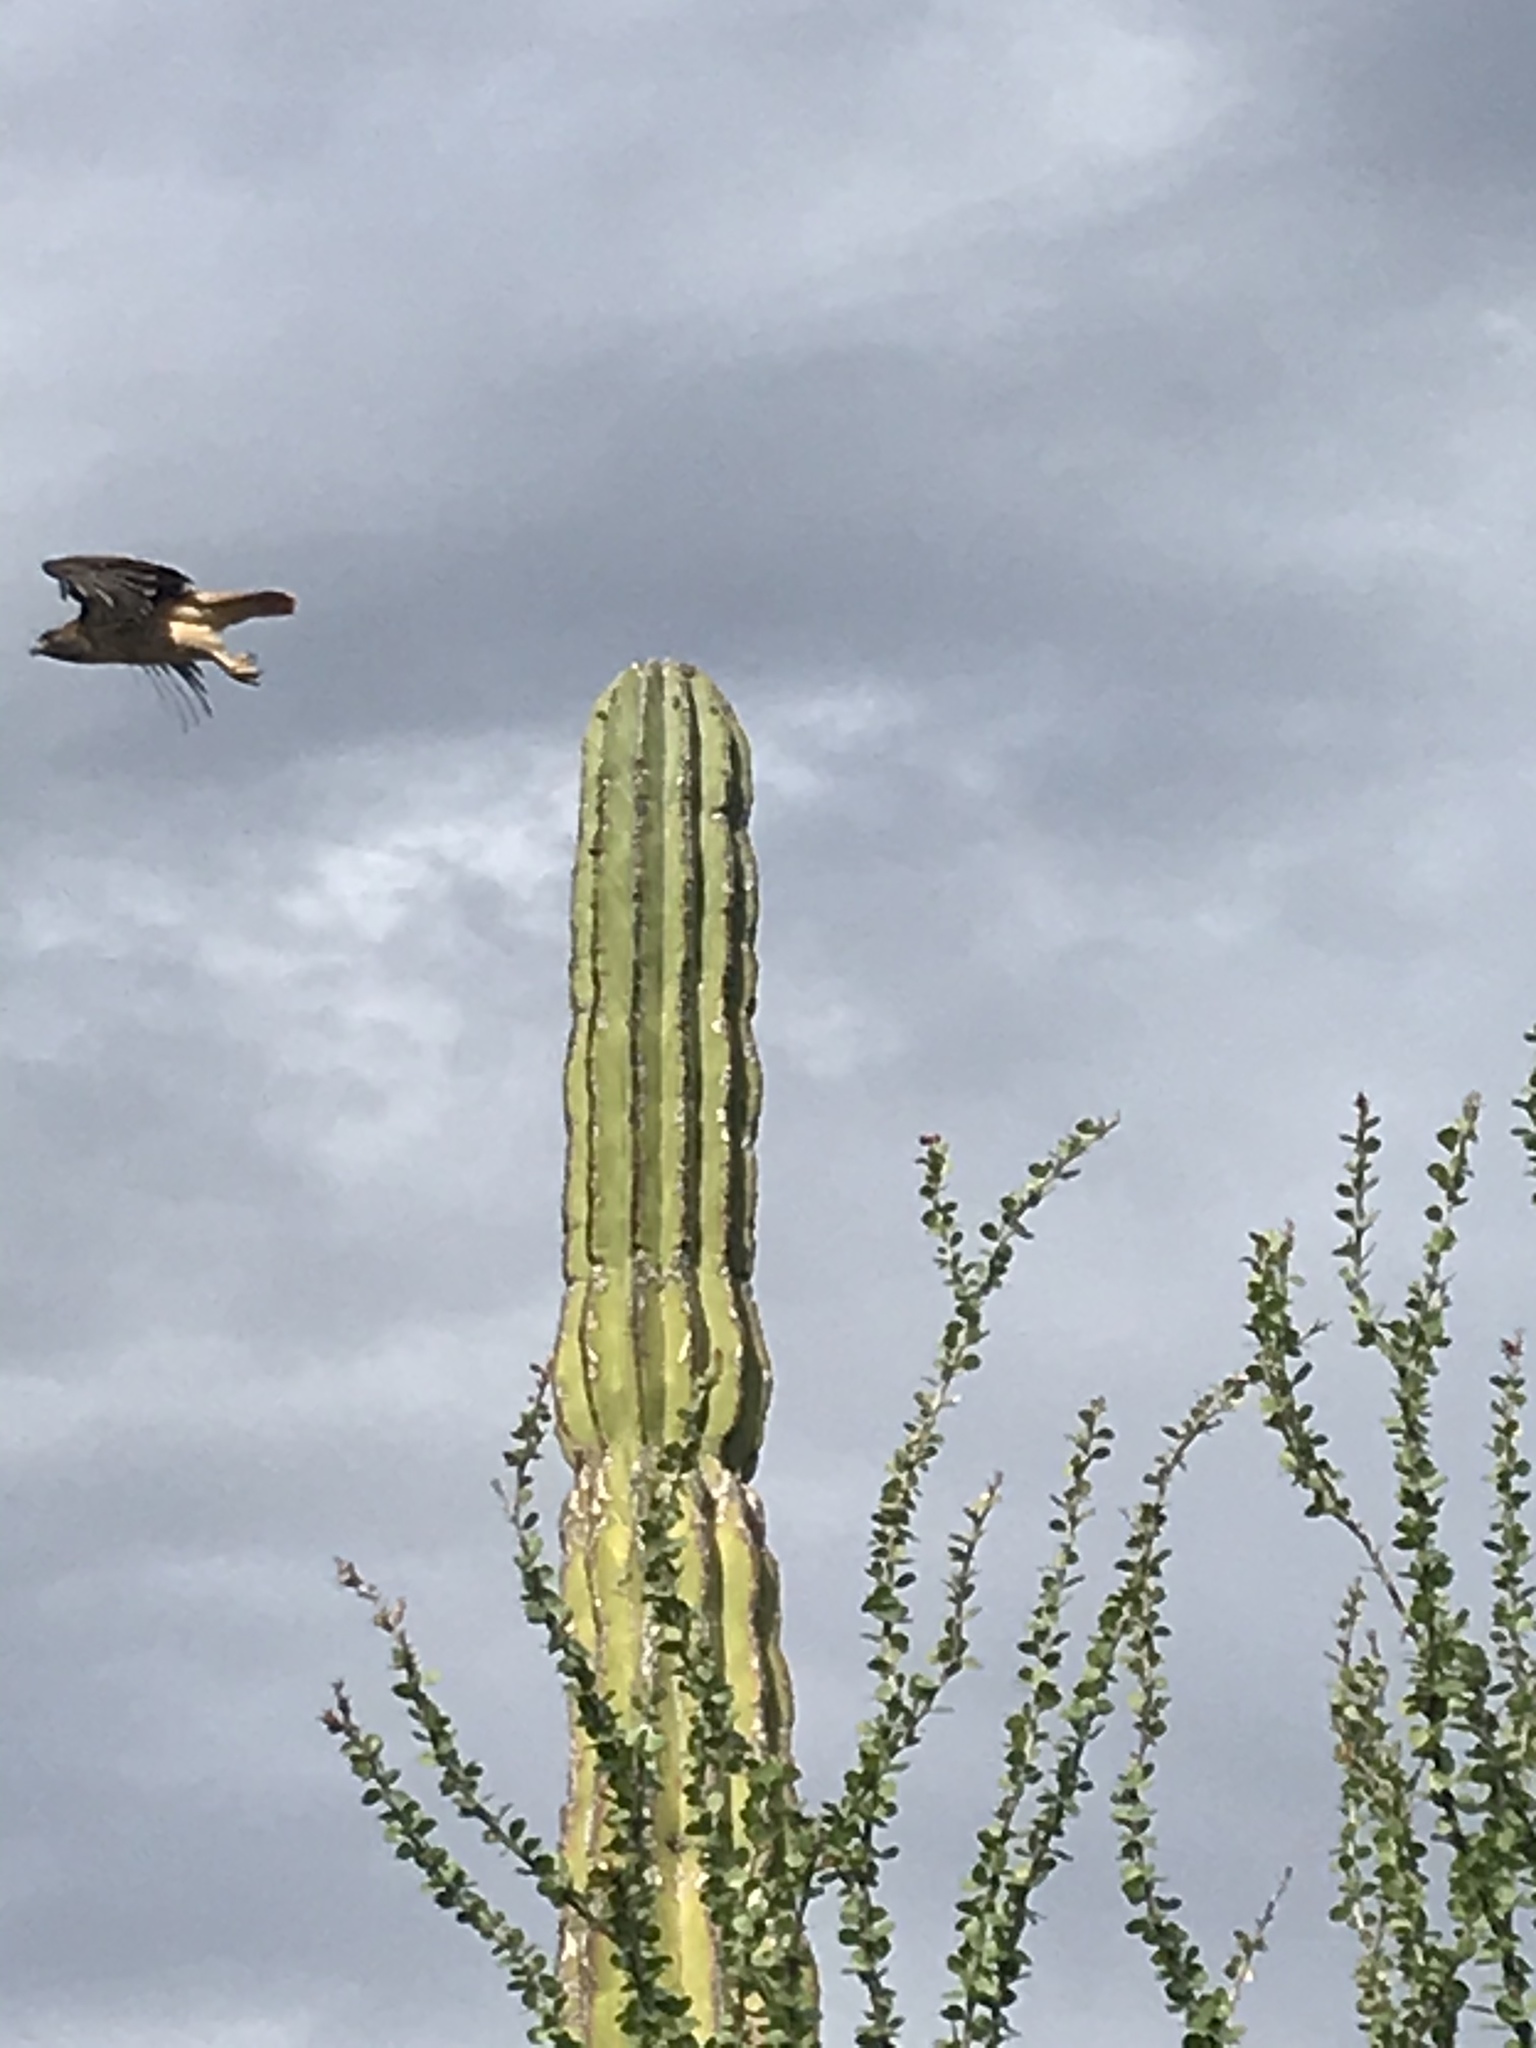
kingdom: Animalia
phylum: Chordata
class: Aves
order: Accipitriformes
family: Accipitridae
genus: Buteo
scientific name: Buteo jamaicensis
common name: Red-tailed hawk
